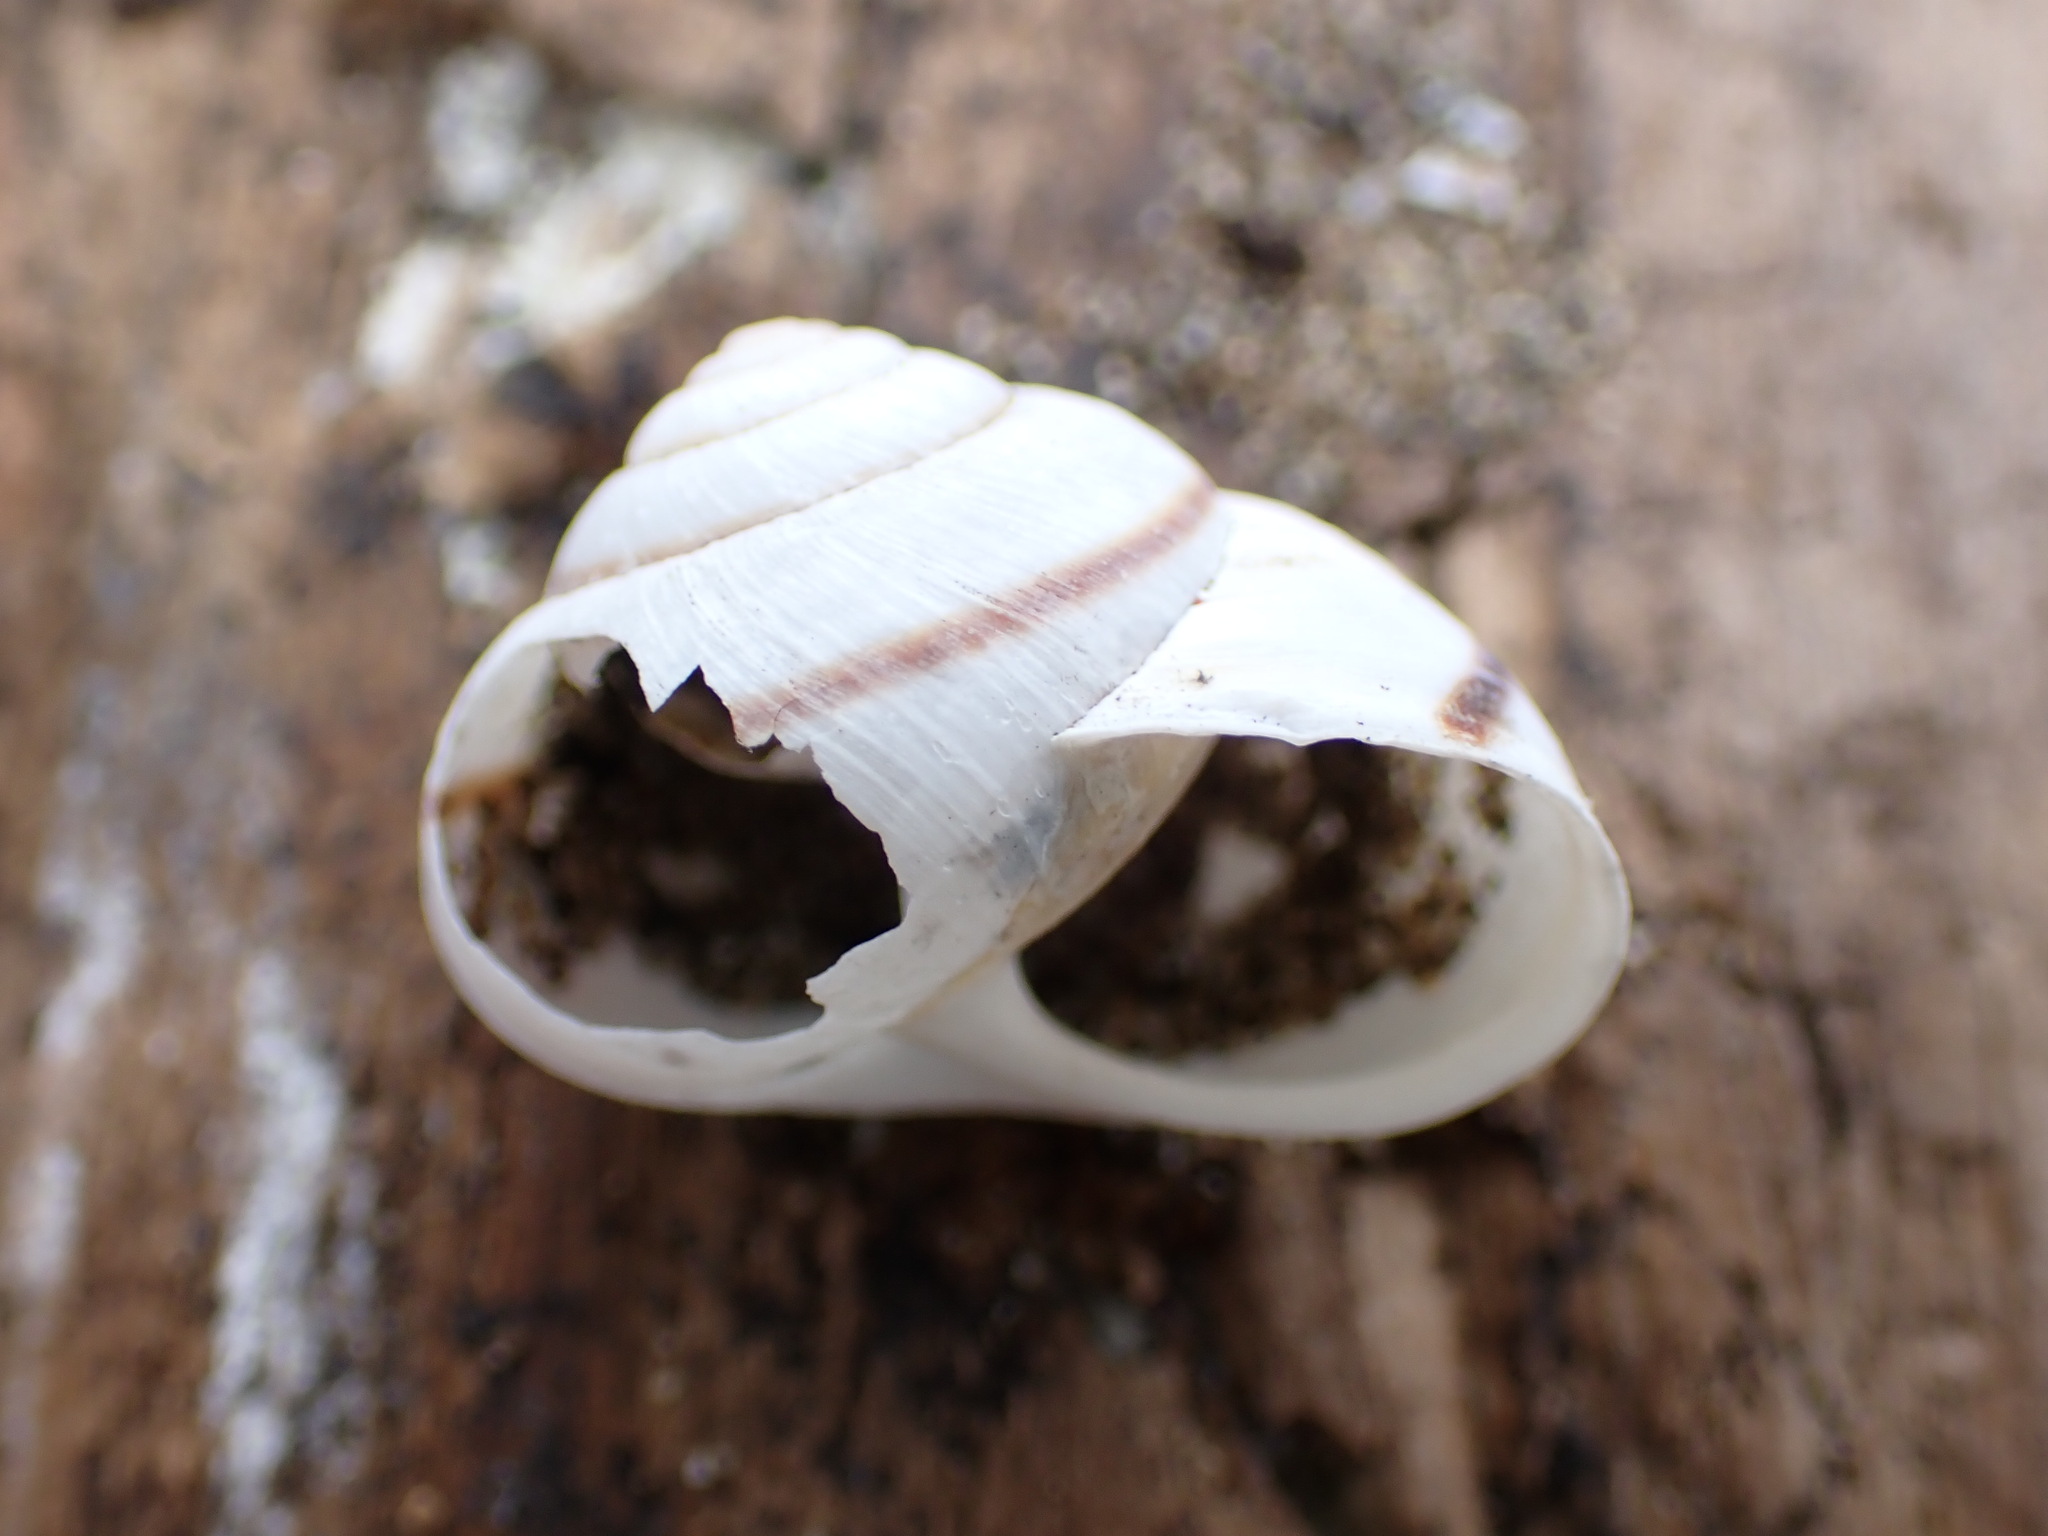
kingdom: Animalia
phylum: Mollusca
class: Gastropoda
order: Stylommatophora
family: Xanthonychidae
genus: Noyo
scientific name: Noyo intersessa
